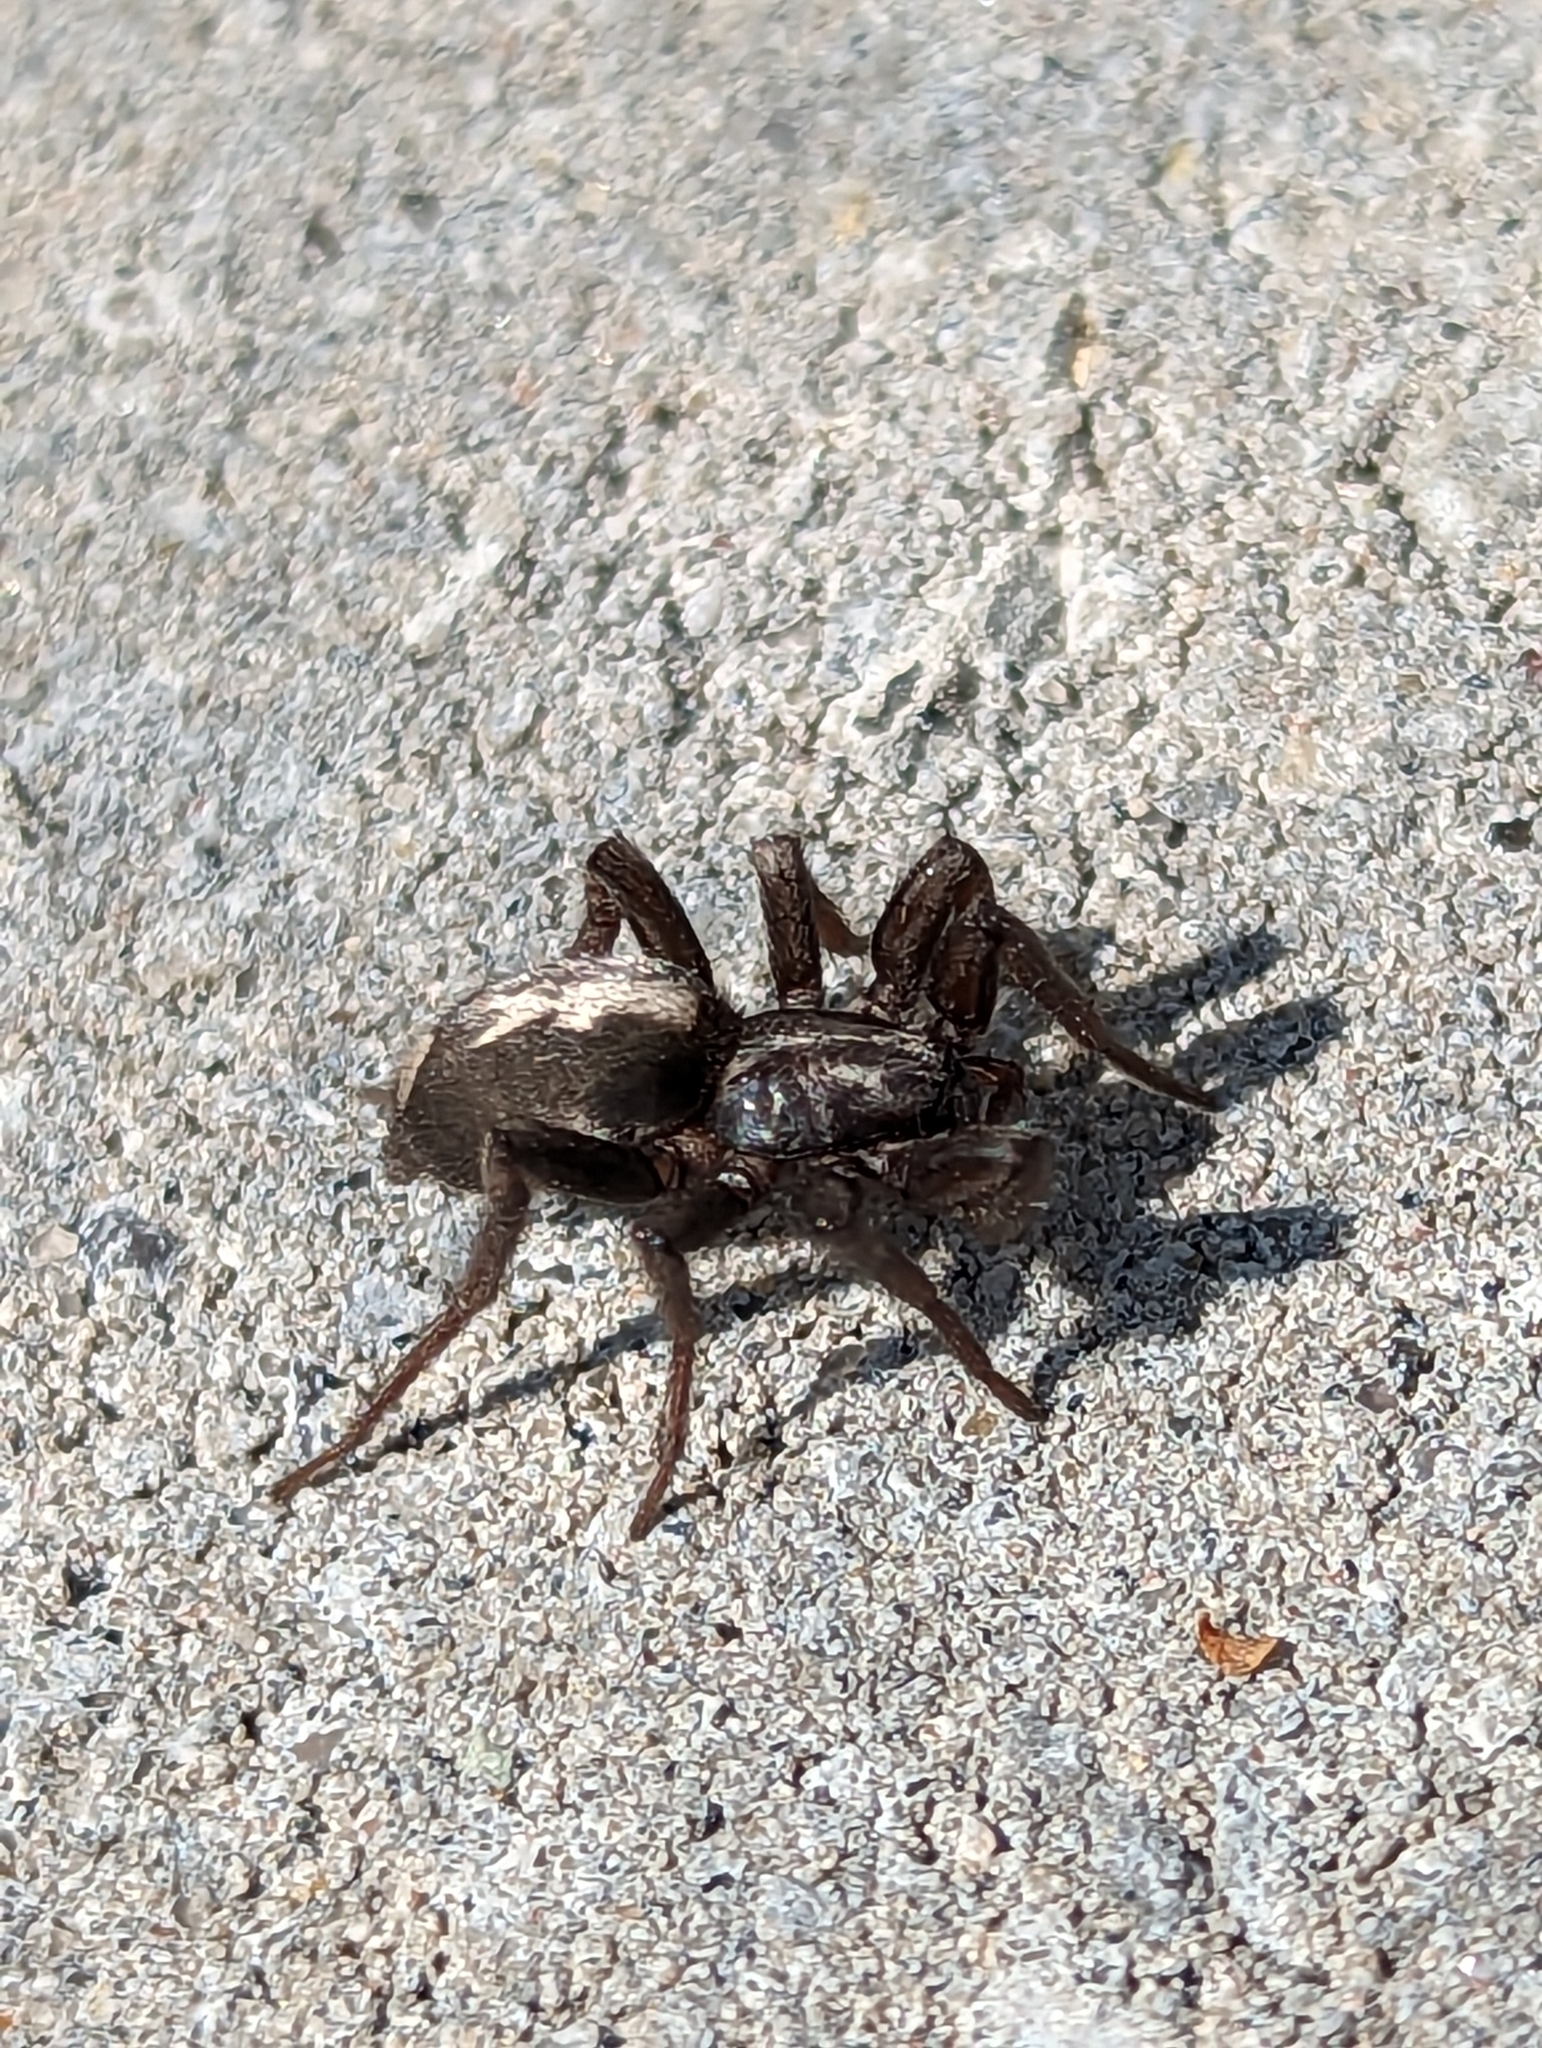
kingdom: Animalia
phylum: Arthropoda
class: Arachnida
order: Araneae
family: Gnaphosidae
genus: Herpyllus
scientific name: Herpyllus ecclesiasticus
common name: Eastern parson spider
